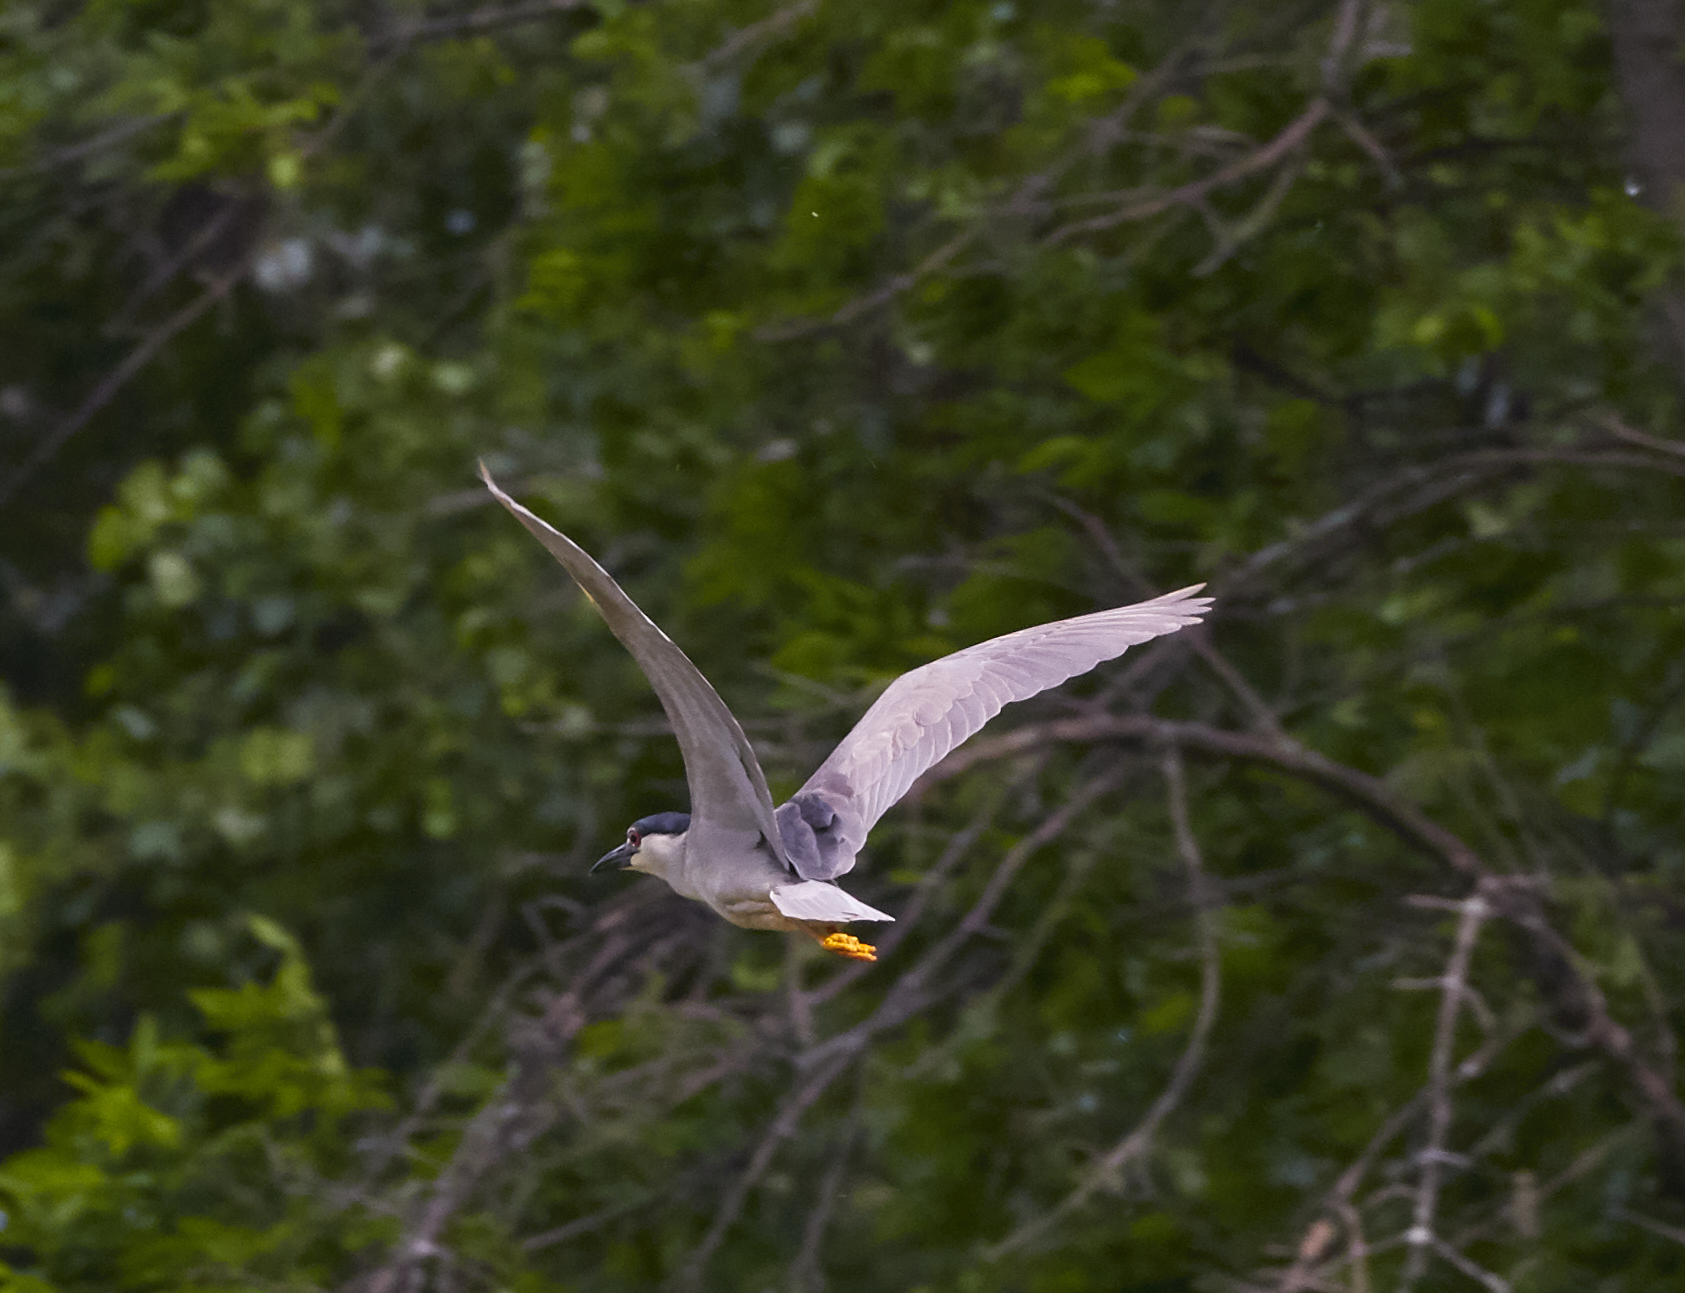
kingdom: Animalia
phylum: Chordata
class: Aves
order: Pelecaniformes
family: Ardeidae
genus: Nycticorax
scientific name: Nycticorax nycticorax
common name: Black-crowned night heron
